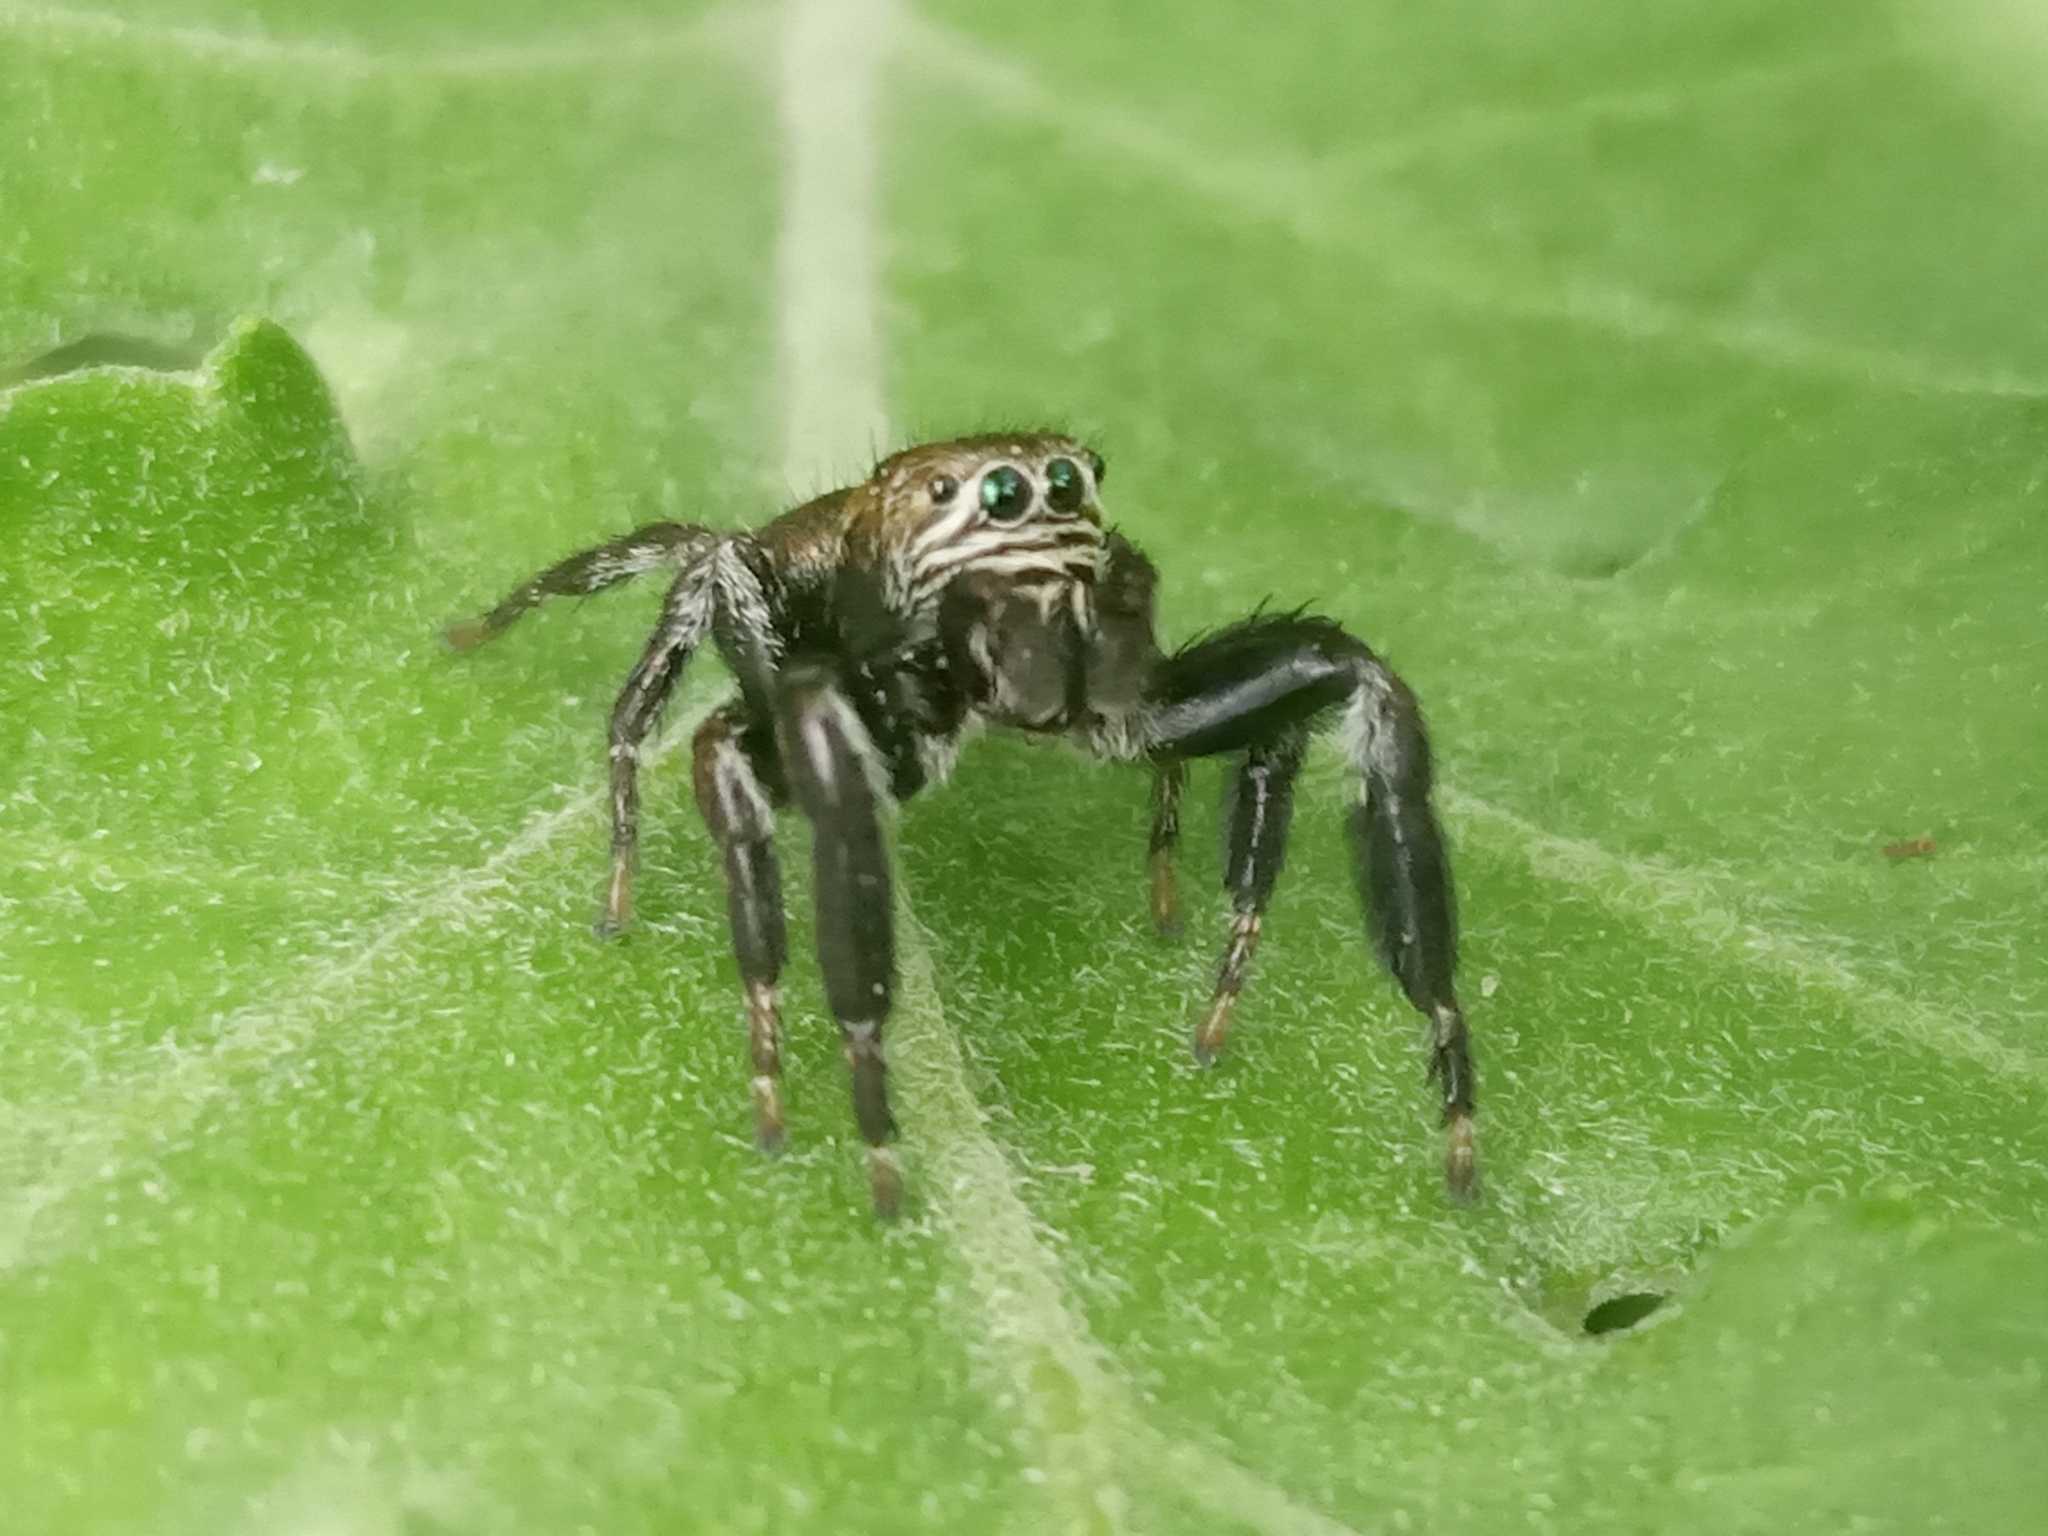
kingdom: Animalia
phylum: Arthropoda
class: Arachnida
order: Araneae
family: Salticidae
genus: Evarcha
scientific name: Evarcha arcuata
